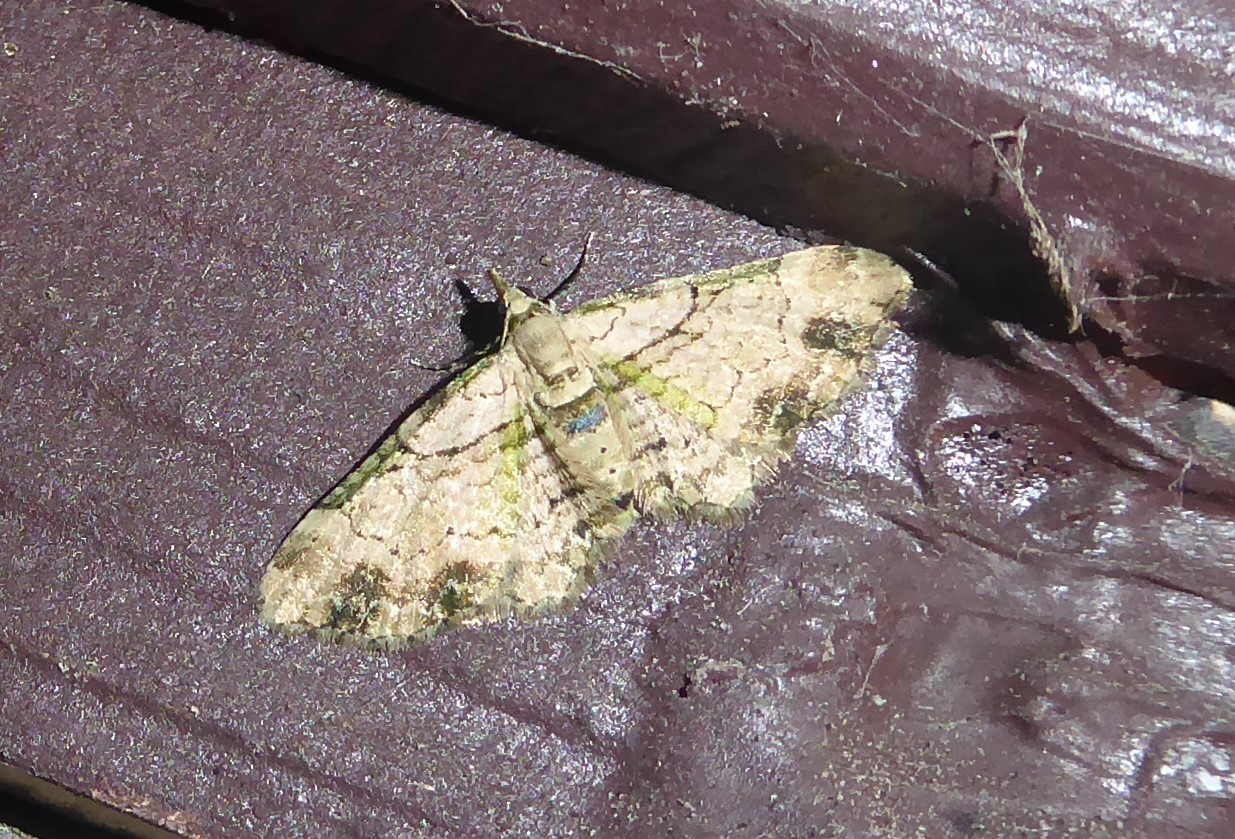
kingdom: Animalia
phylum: Arthropoda
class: Insecta
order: Lepidoptera
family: Geometridae
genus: Chloroclystis
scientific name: Chloroclystis
